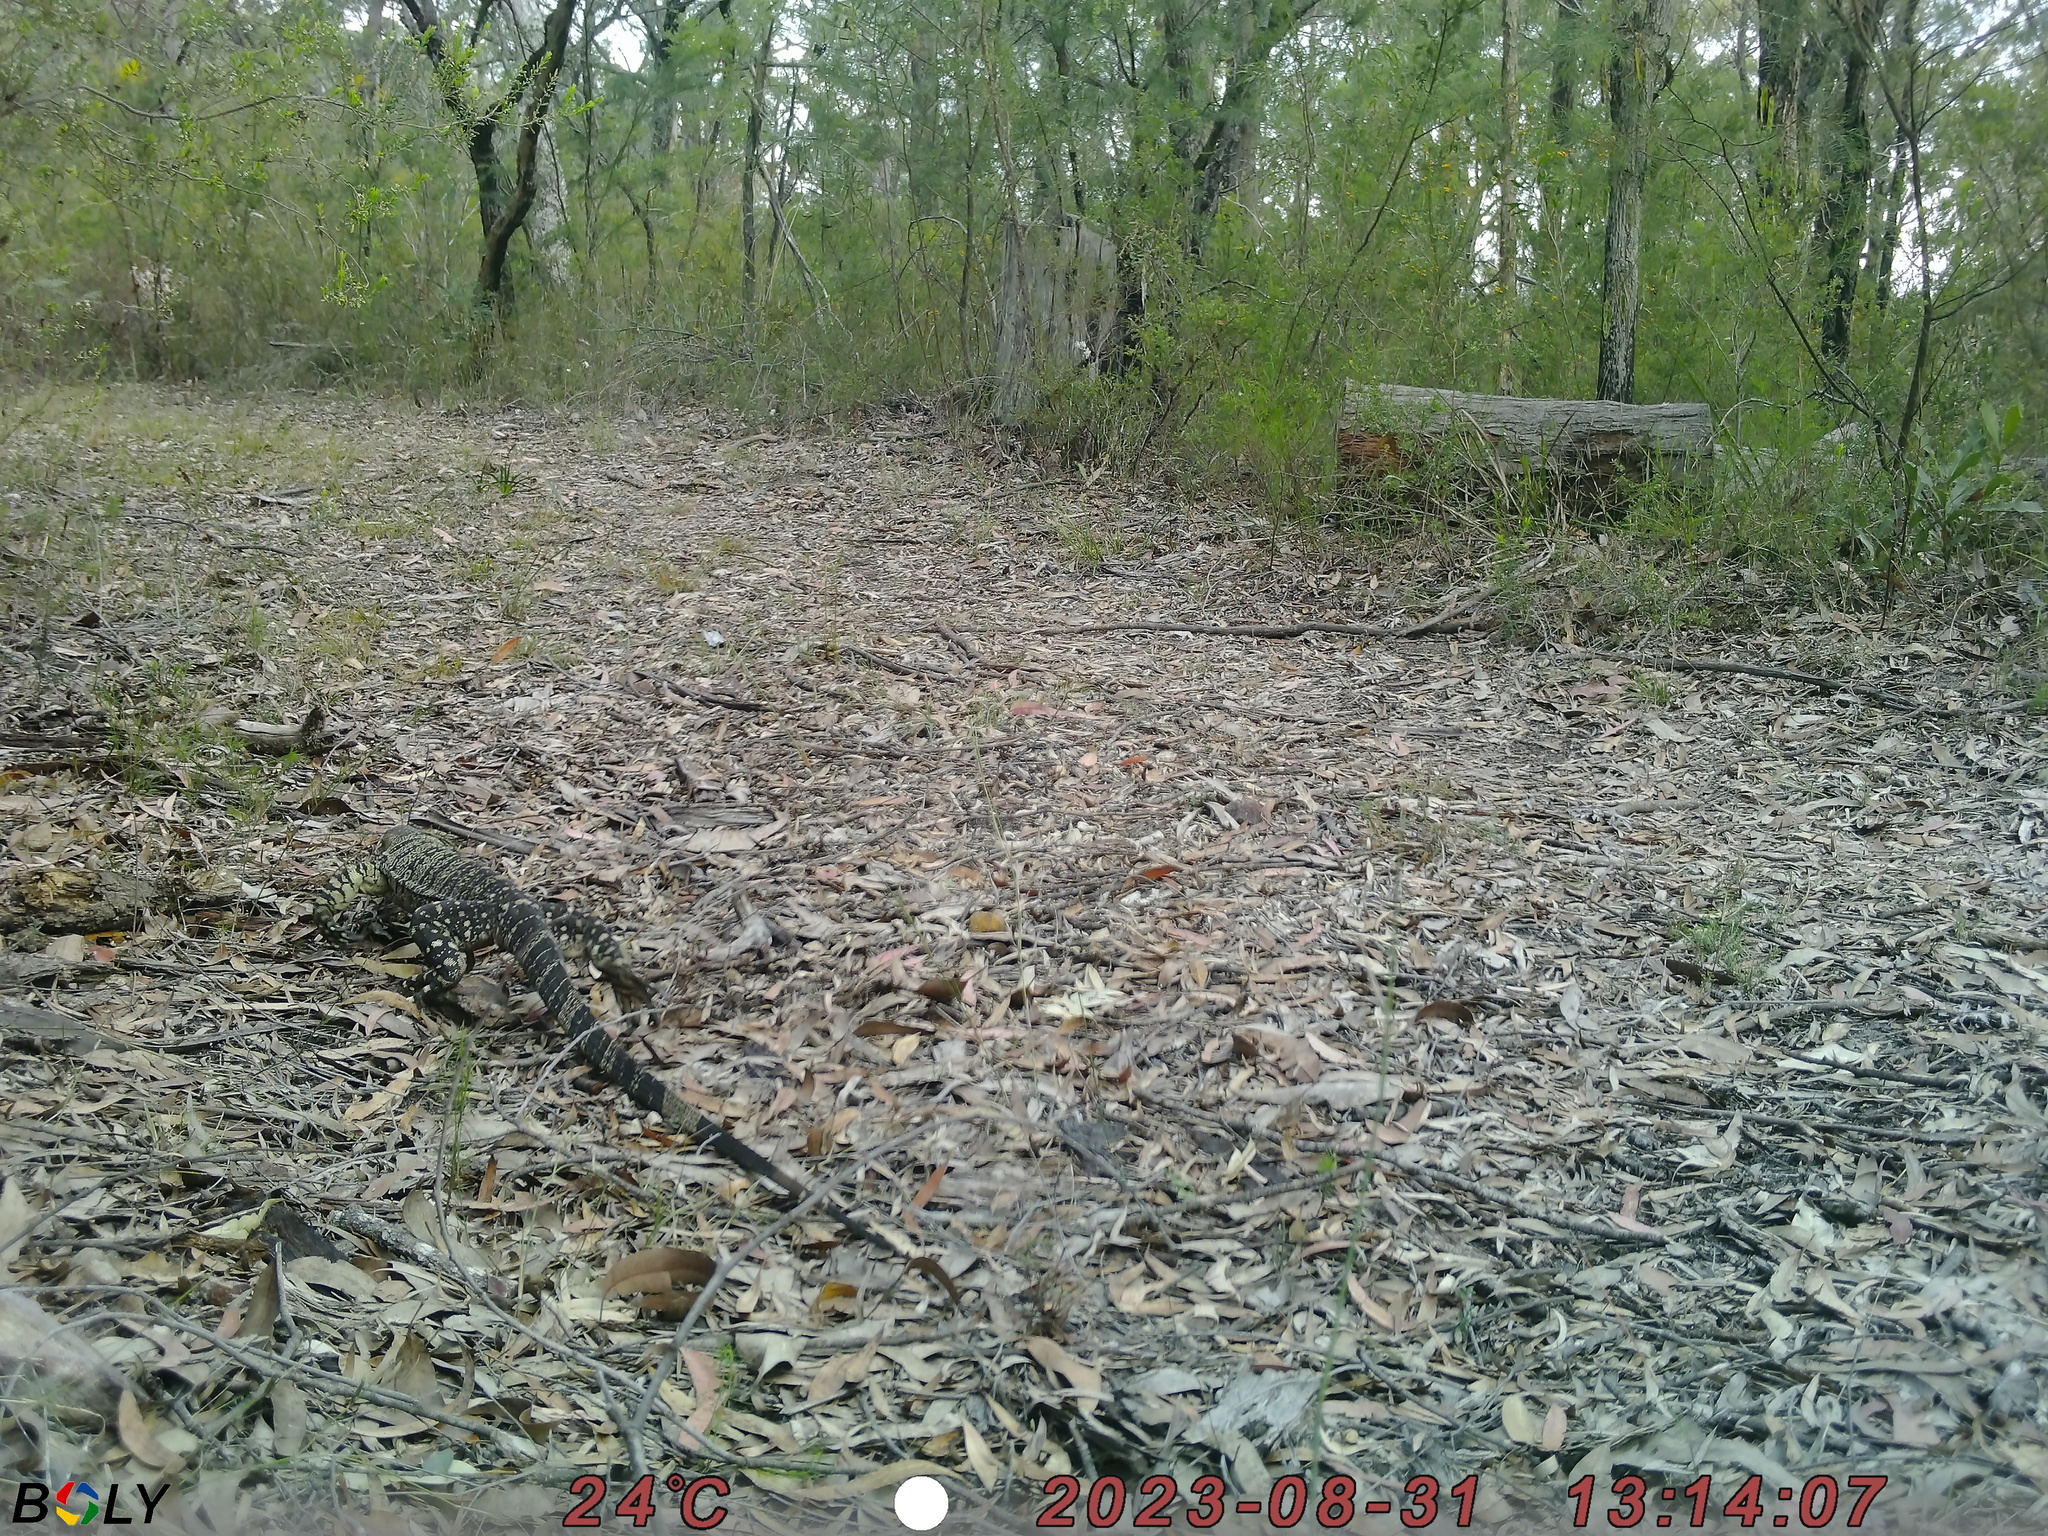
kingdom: Animalia
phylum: Chordata
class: Squamata
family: Varanidae
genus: Varanus
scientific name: Varanus varius
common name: Lace monitor
